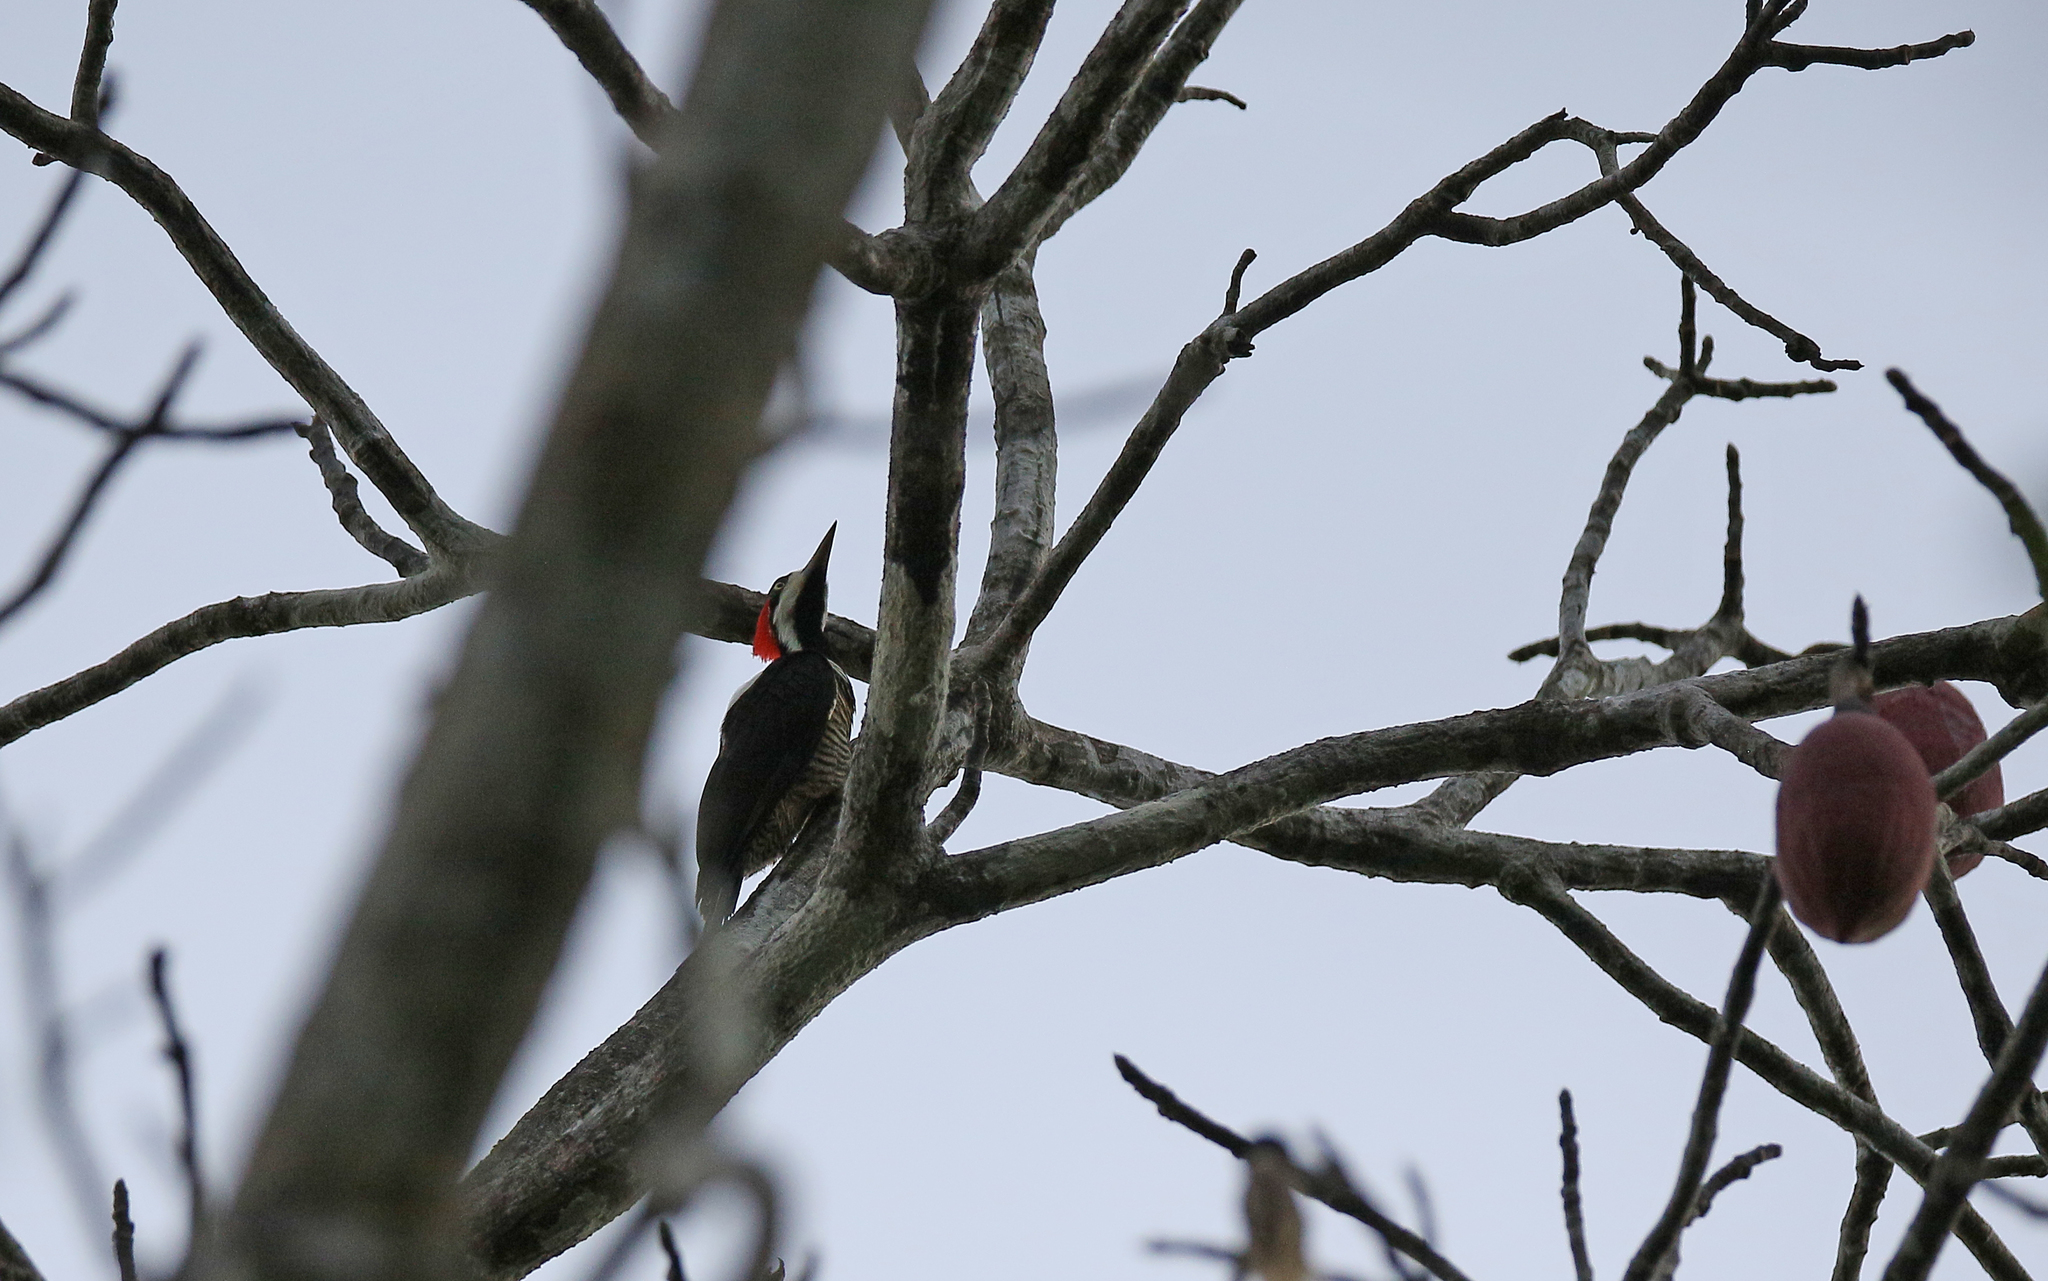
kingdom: Animalia
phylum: Chordata
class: Aves
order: Piciformes
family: Picidae
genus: Campephilus
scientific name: Campephilus melanoleucos
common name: Crimson-crested woodpecker
